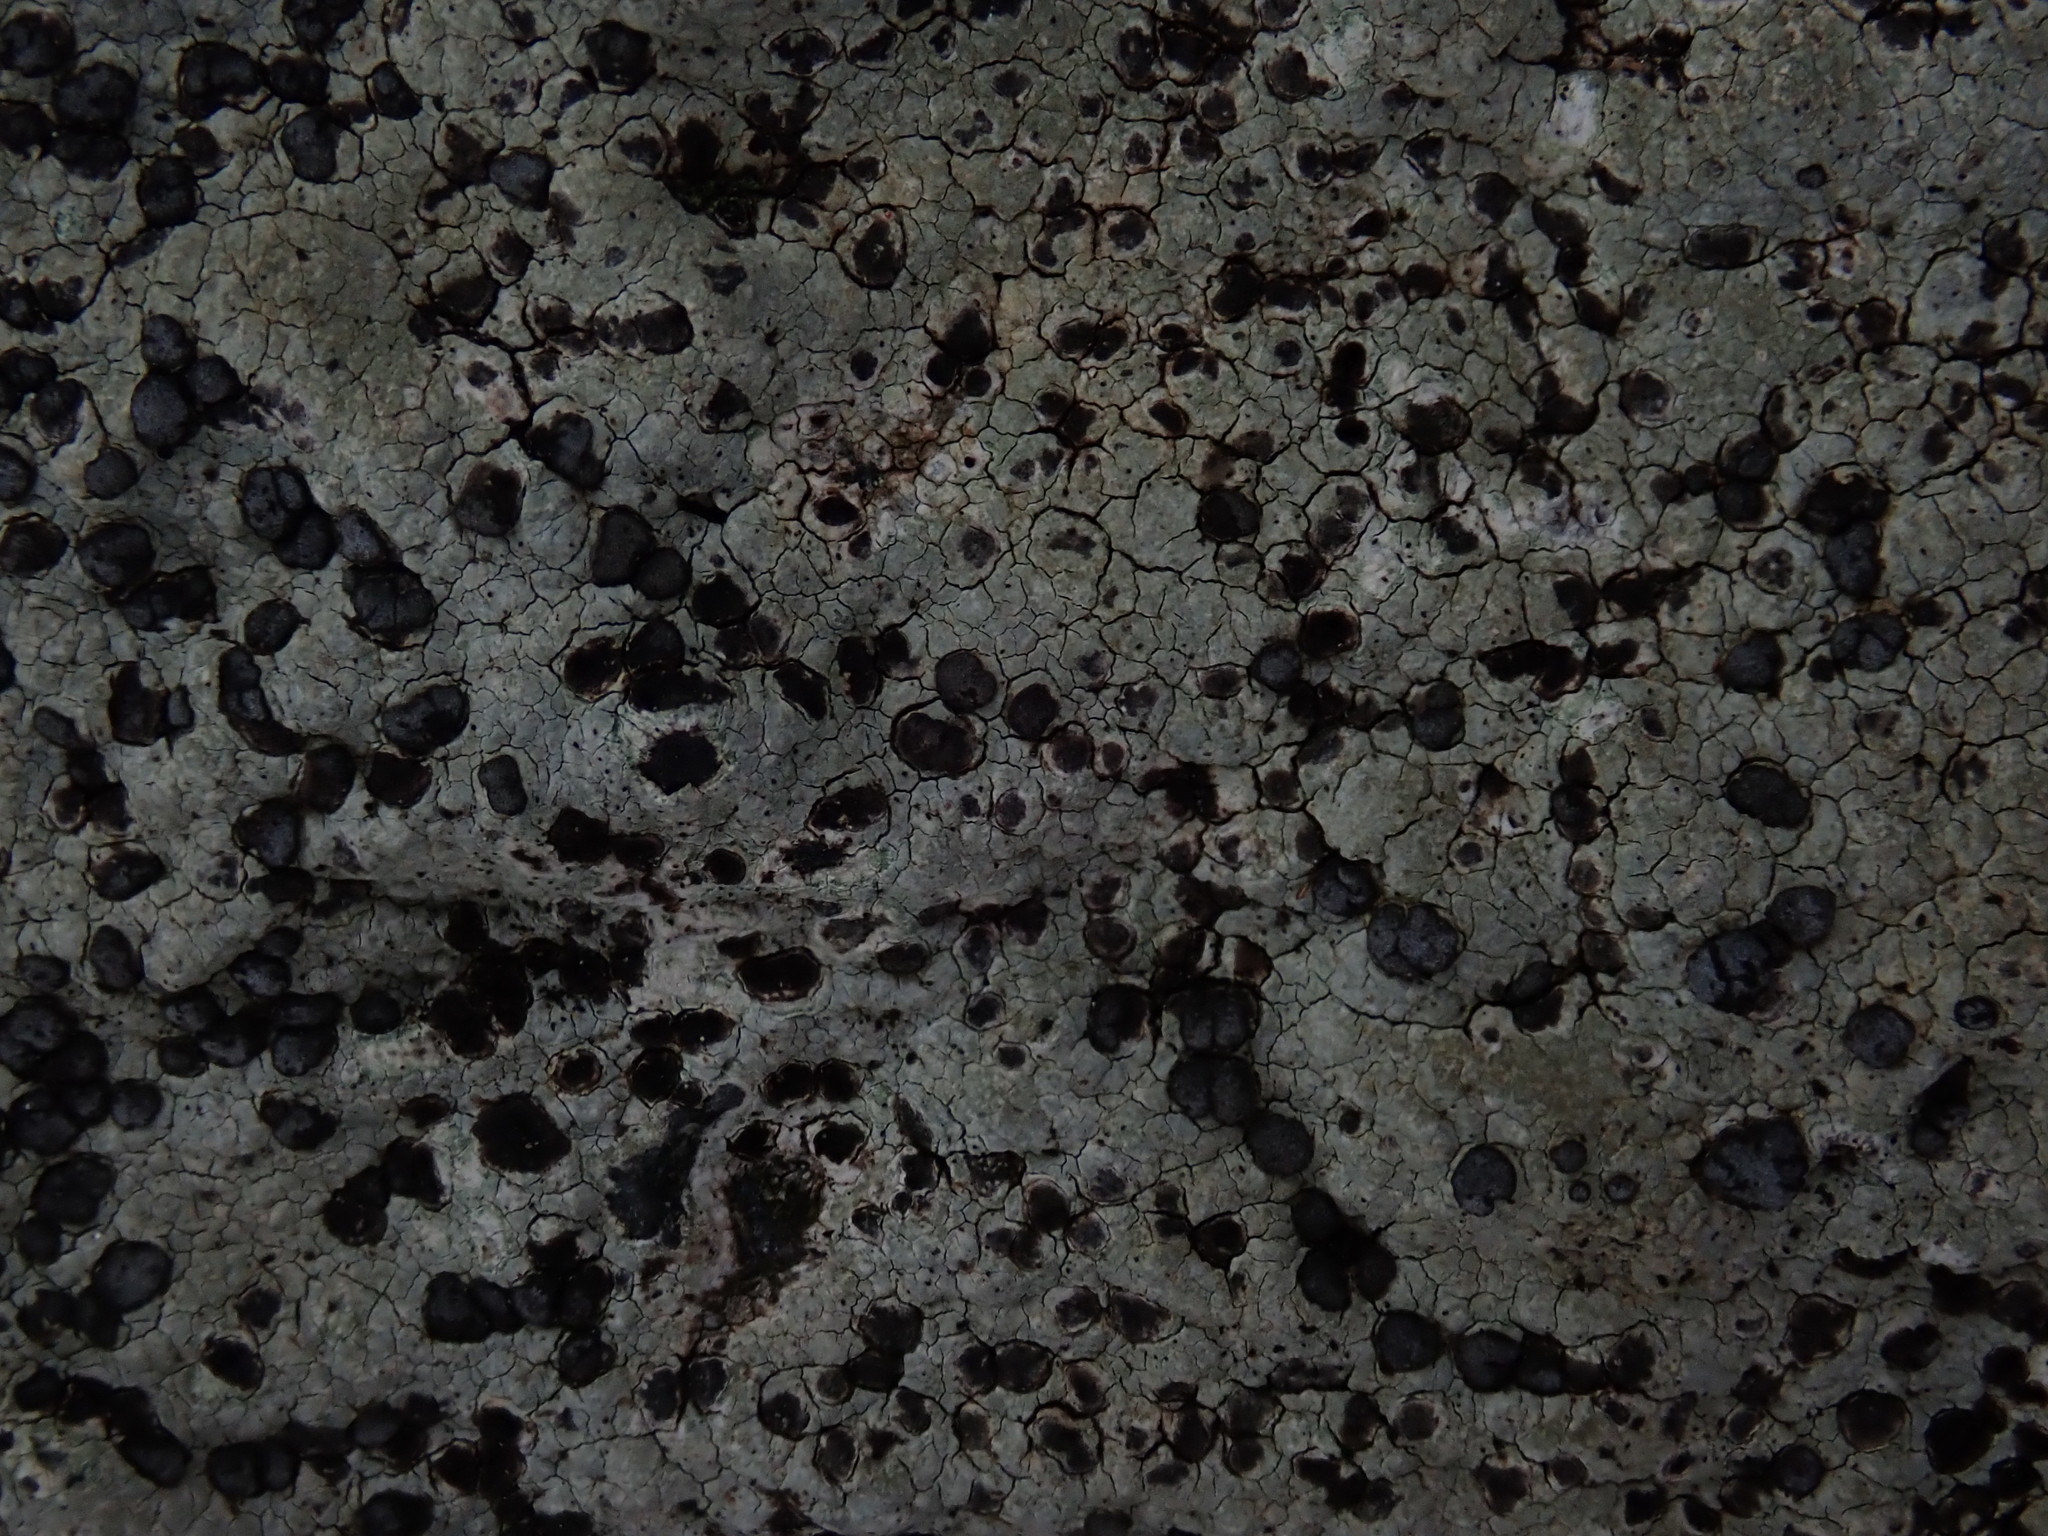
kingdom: Fungi
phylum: Ascomycota
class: Lecanoromycetes
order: Lecideales
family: Lecideaceae
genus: Porpidia
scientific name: Porpidia albocaerulescens
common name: Smokey-eyed boulder lichen
